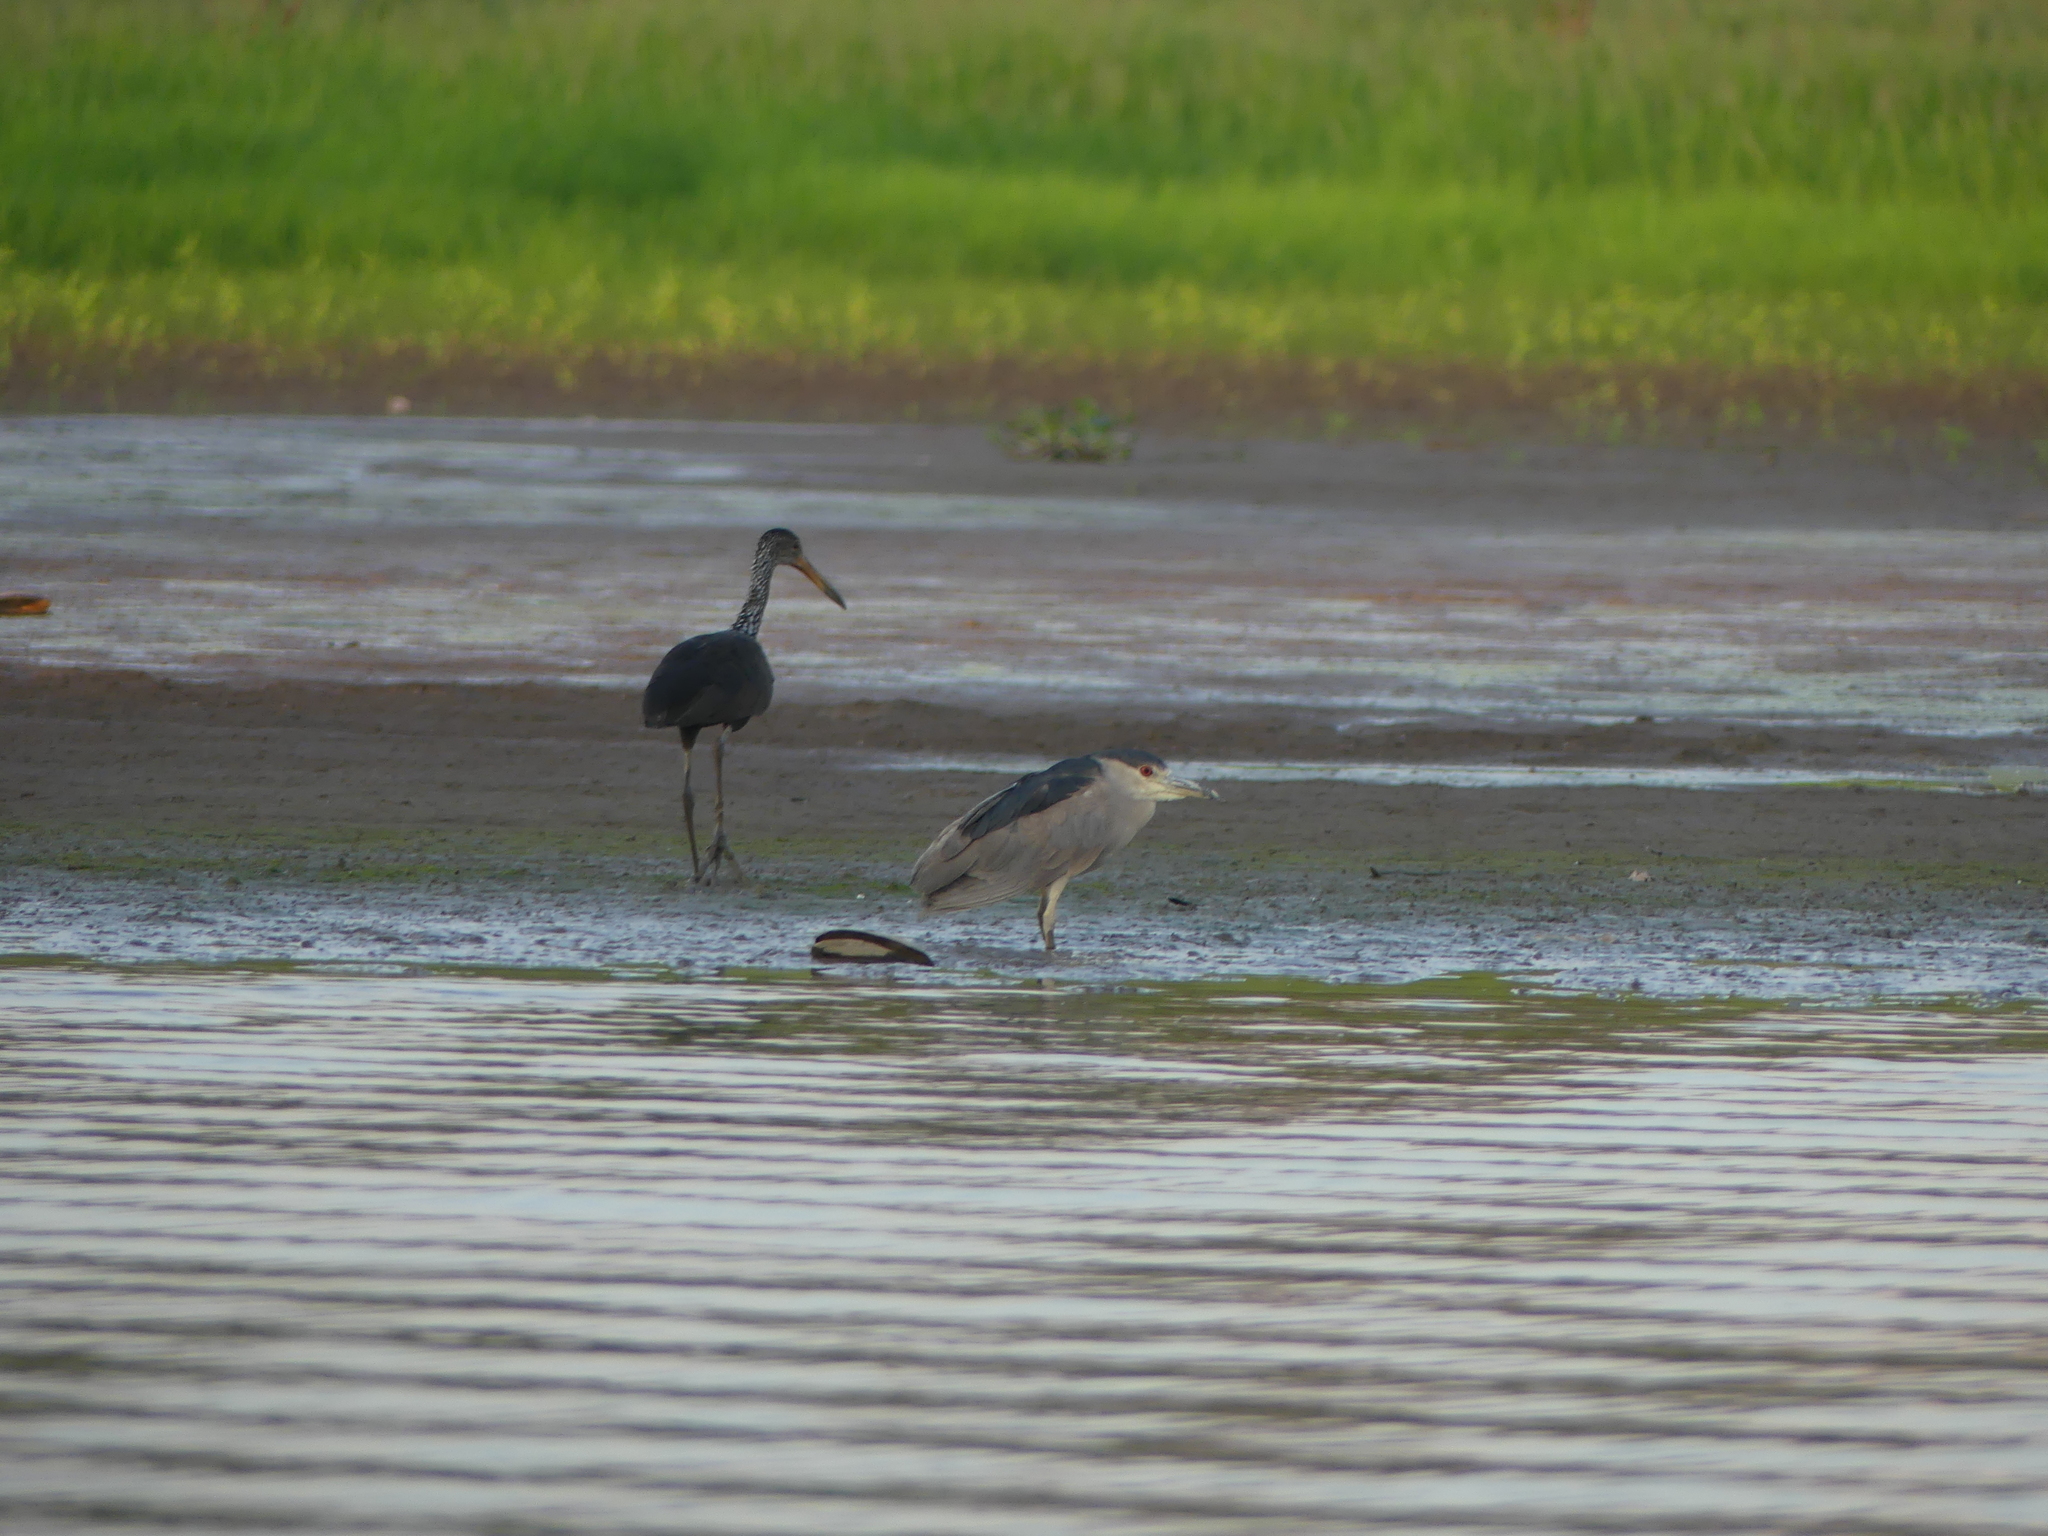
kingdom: Animalia
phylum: Chordata
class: Aves
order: Pelecaniformes
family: Ardeidae
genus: Nycticorax
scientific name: Nycticorax nycticorax
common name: Black-crowned night heron
